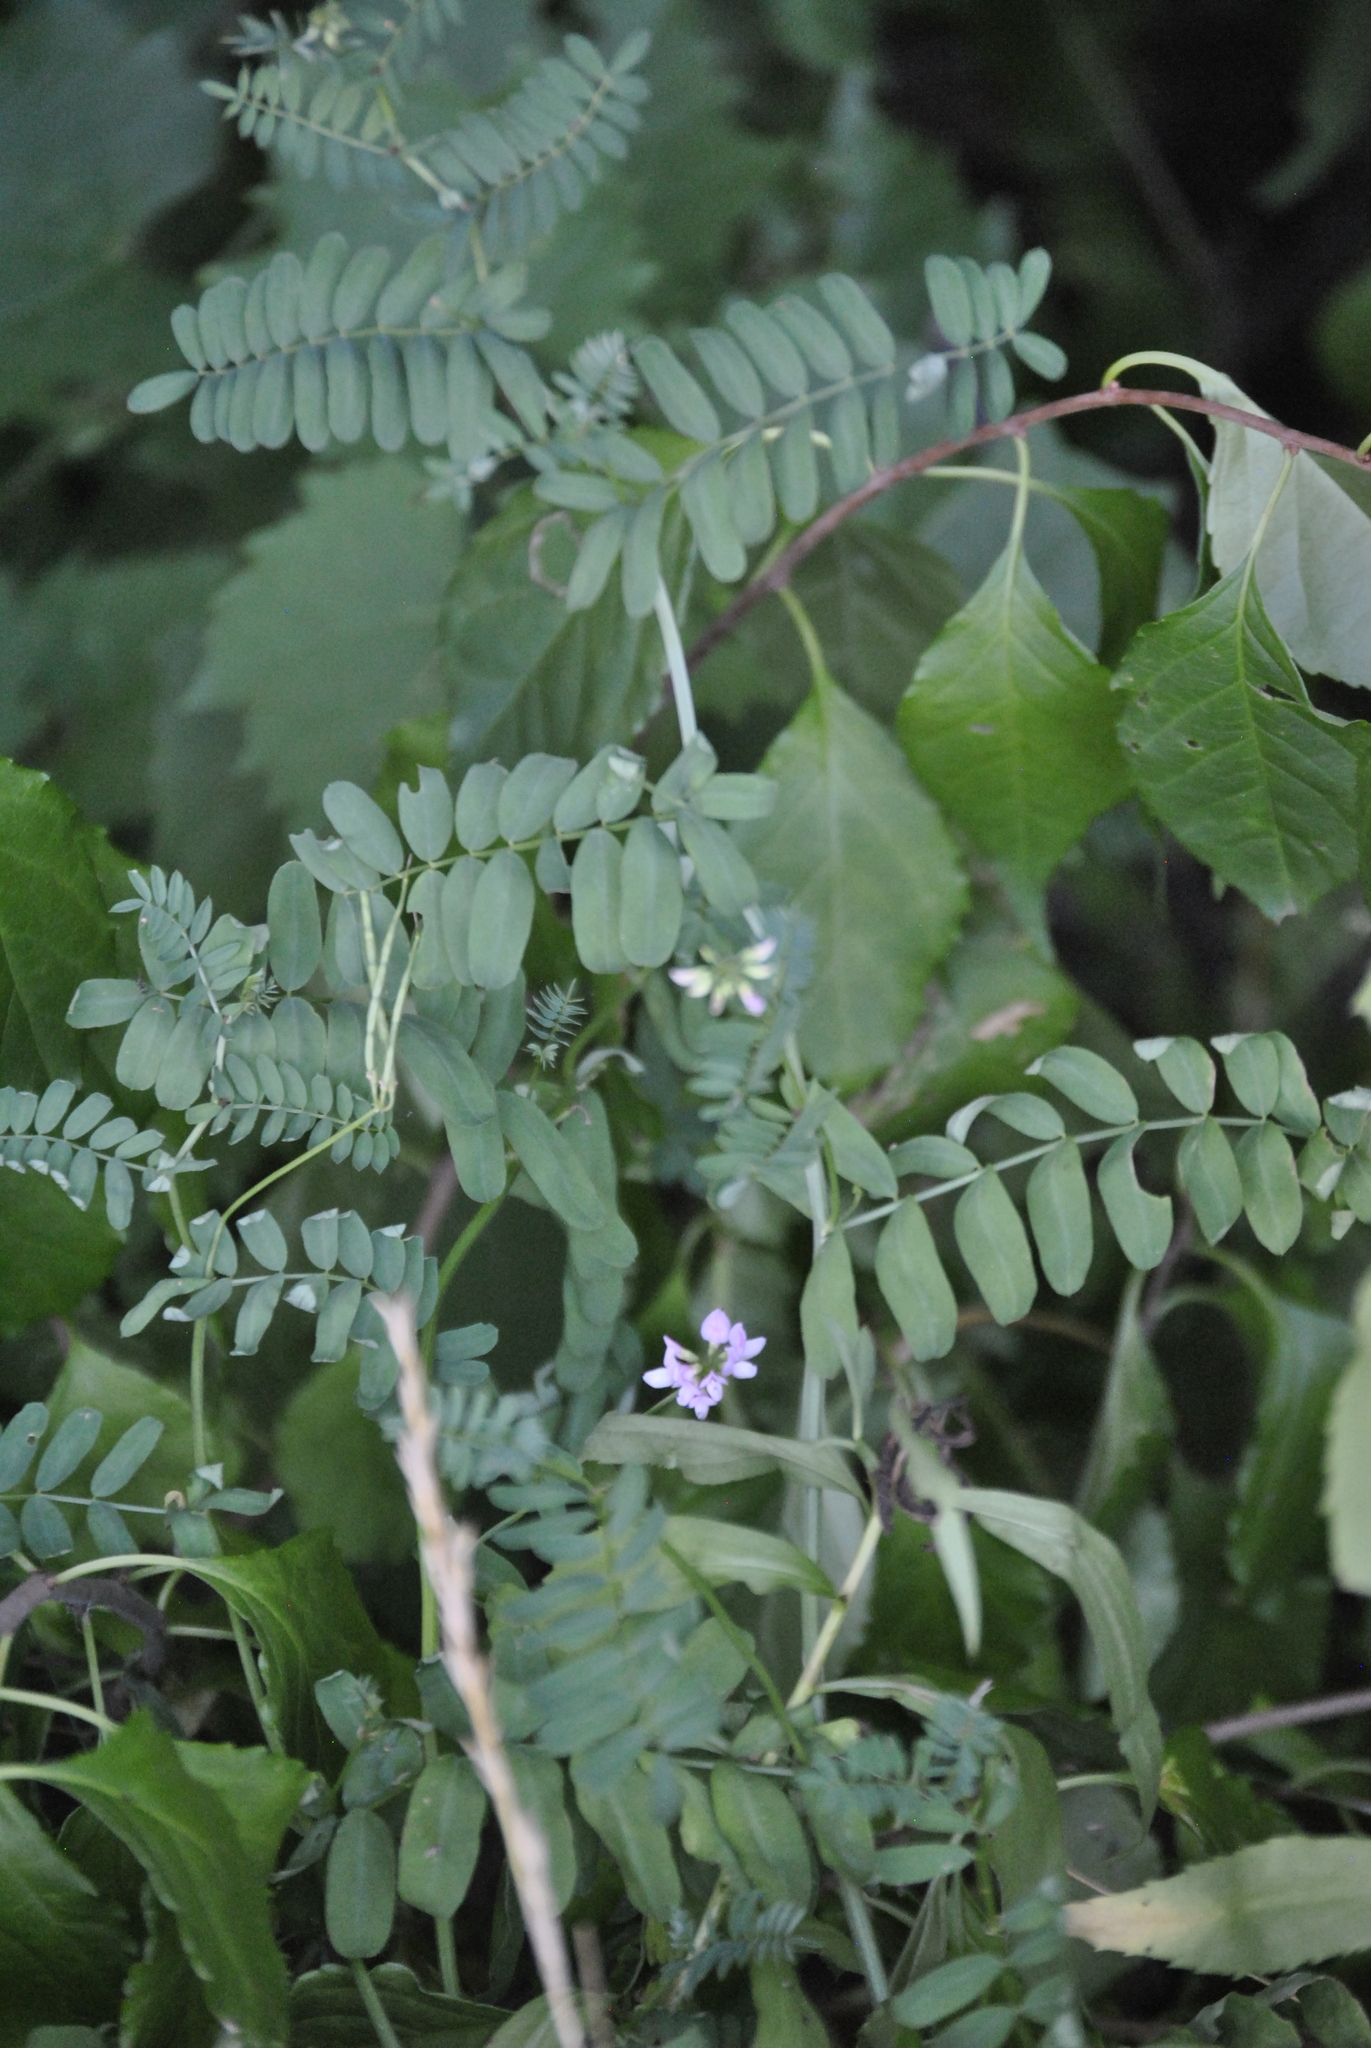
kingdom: Plantae
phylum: Tracheophyta
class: Magnoliopsida
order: Fabales
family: Fabaceae
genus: Coronilla
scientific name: Coronilla varia
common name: Crownvetch
